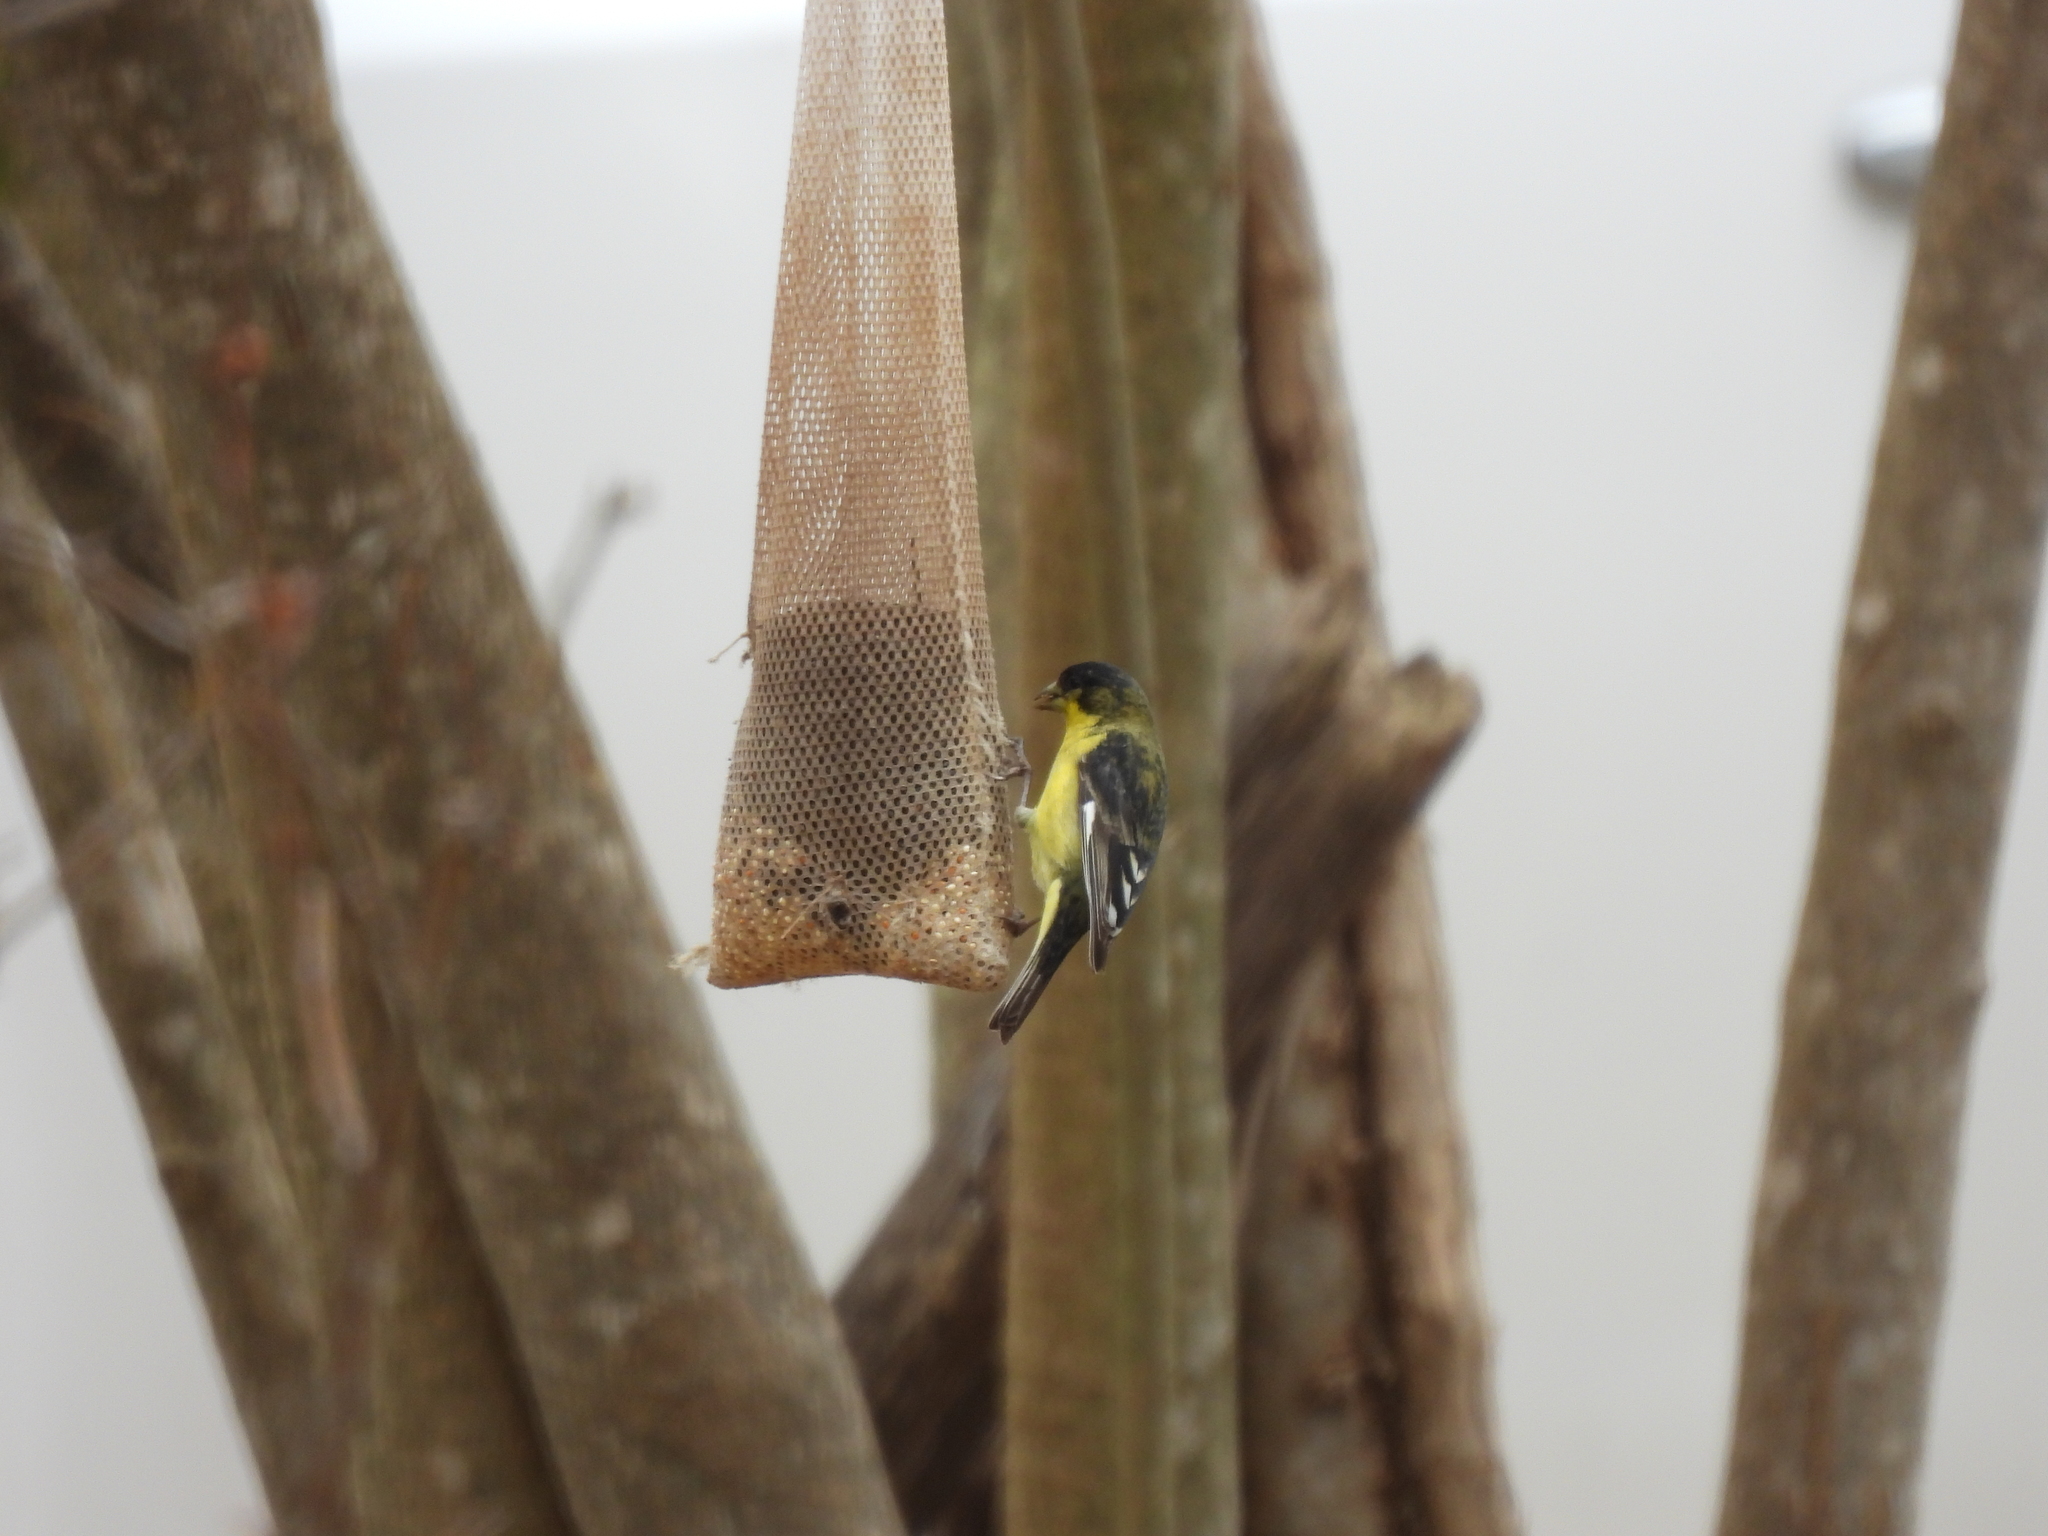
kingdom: Animalia
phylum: Chordata
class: Aves
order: Passeriformes
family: Fringillidae
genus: Spinus
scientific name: Spinus psaltria
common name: Lesser goldfinch
